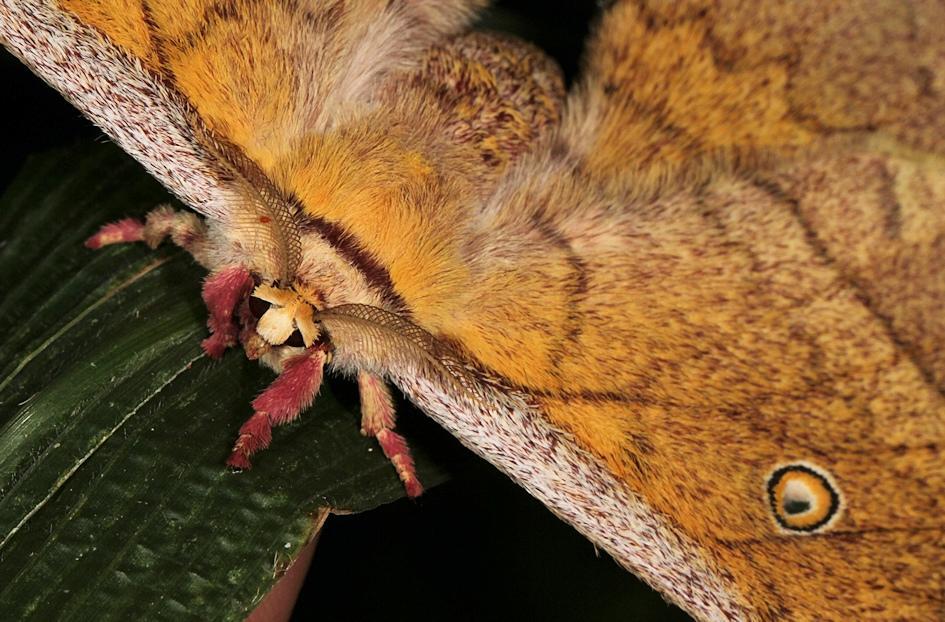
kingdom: Animalia
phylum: Arthropoda
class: Insecta
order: Lepidoptera
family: Saturniidae
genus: Pselaphelia
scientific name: Pselaphelia flavivitta
